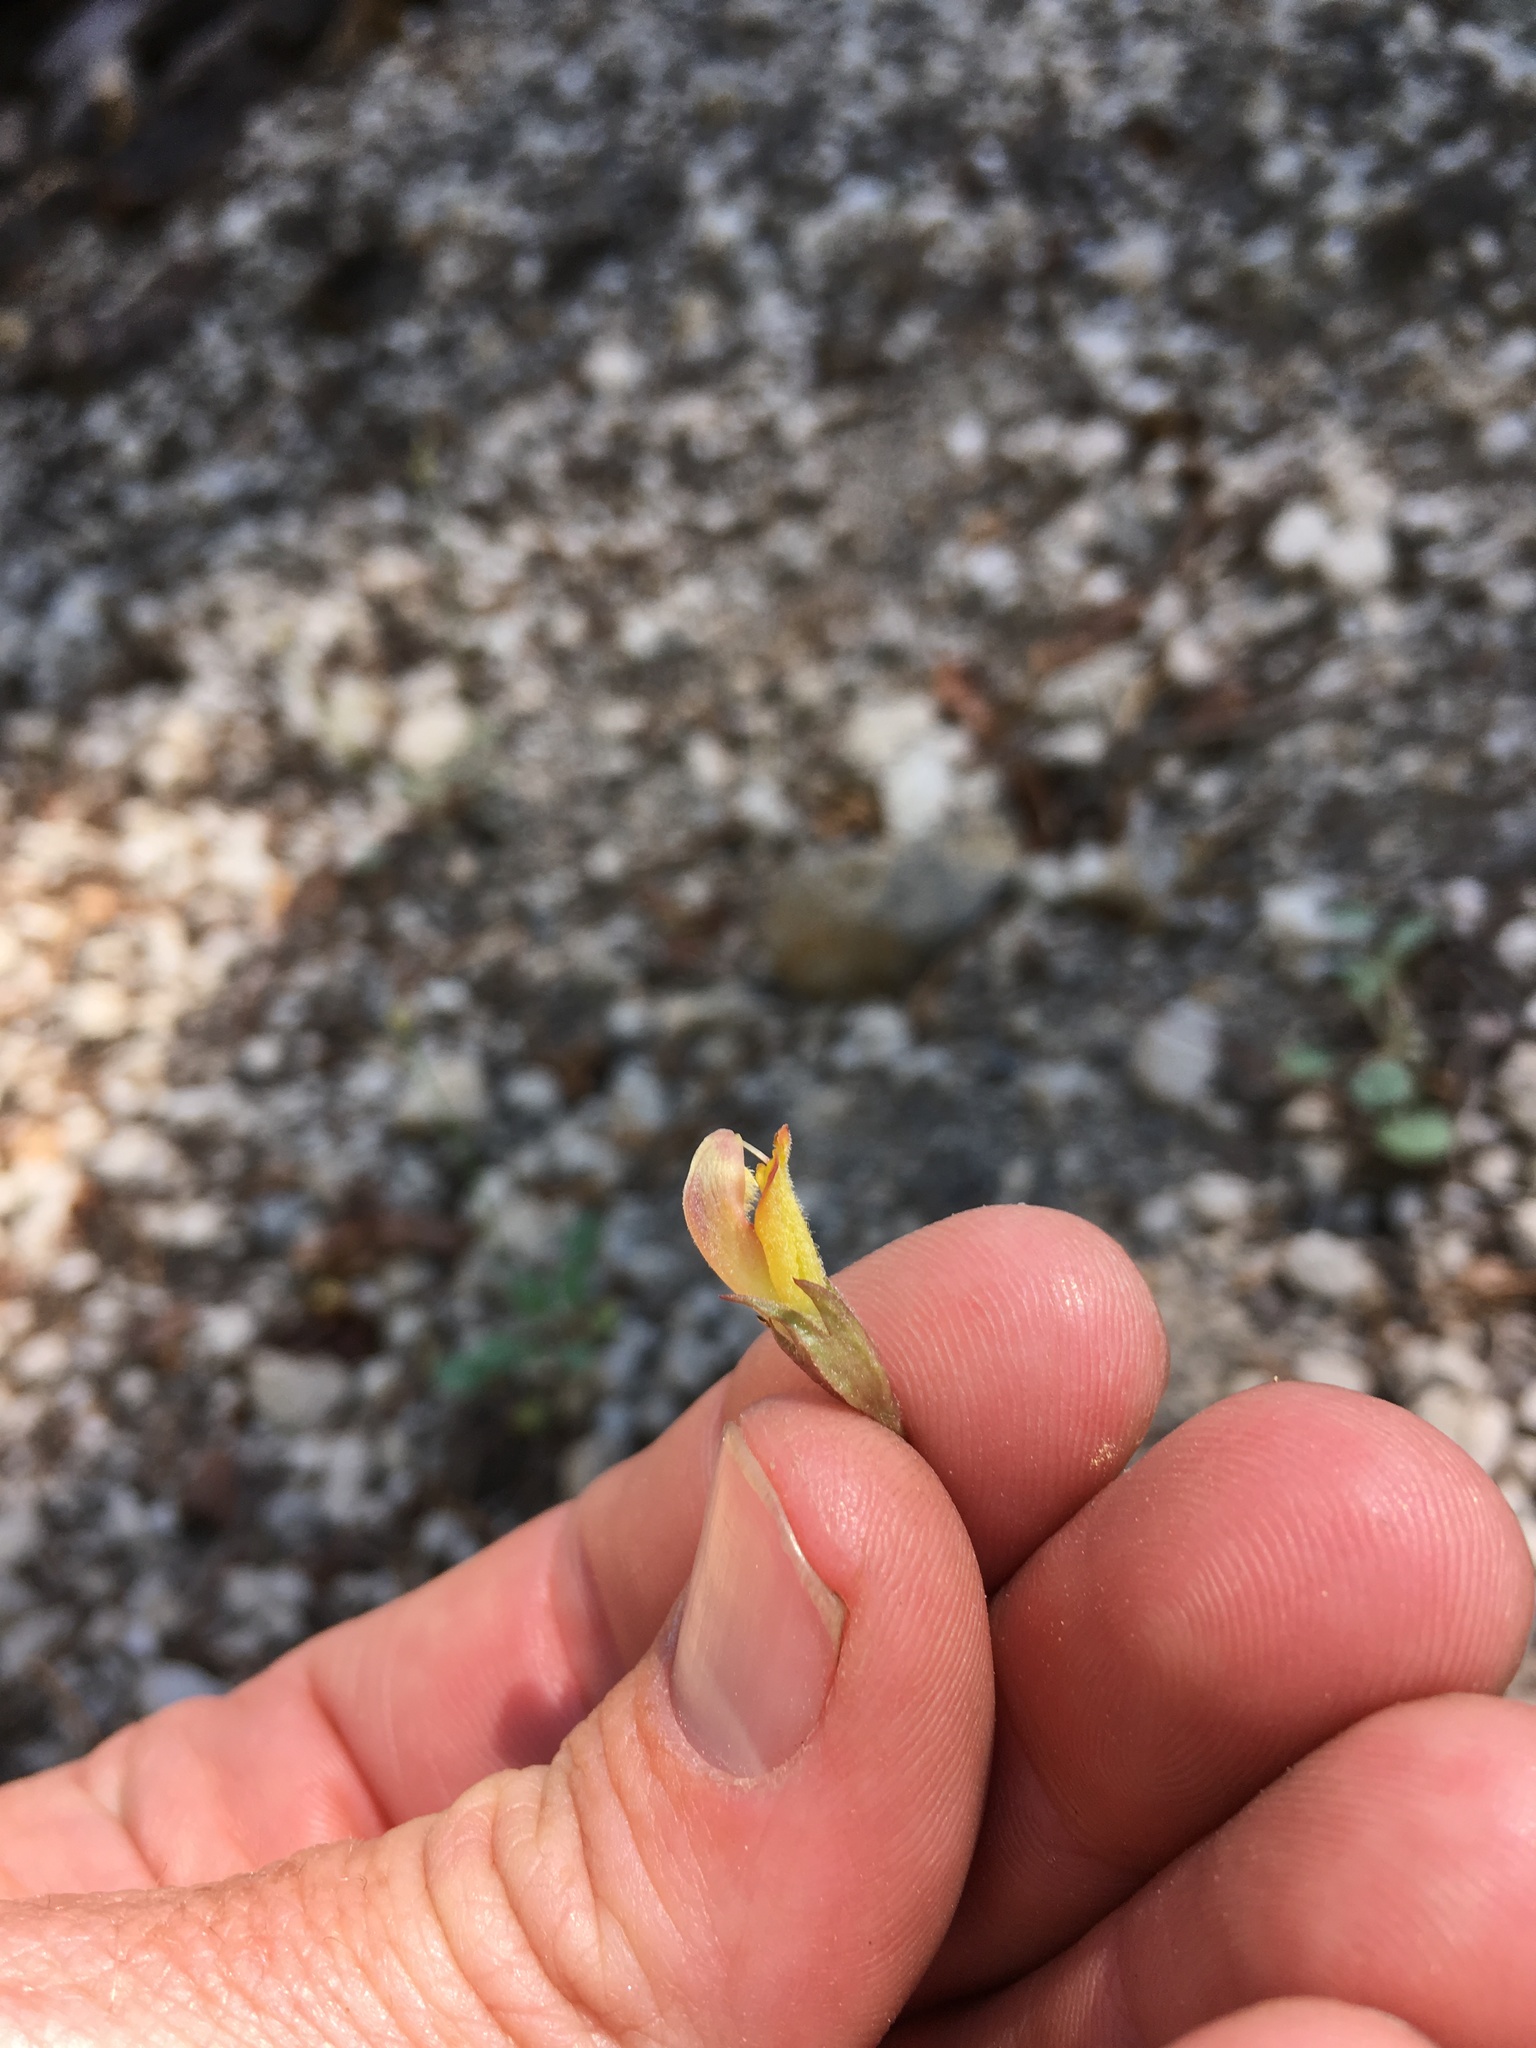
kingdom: Plantae
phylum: Tracheophyta
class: Magnoliopsida
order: Lamiales
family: Orobanchaceae
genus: Pedicularis
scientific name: Pedicularis semibarbata
